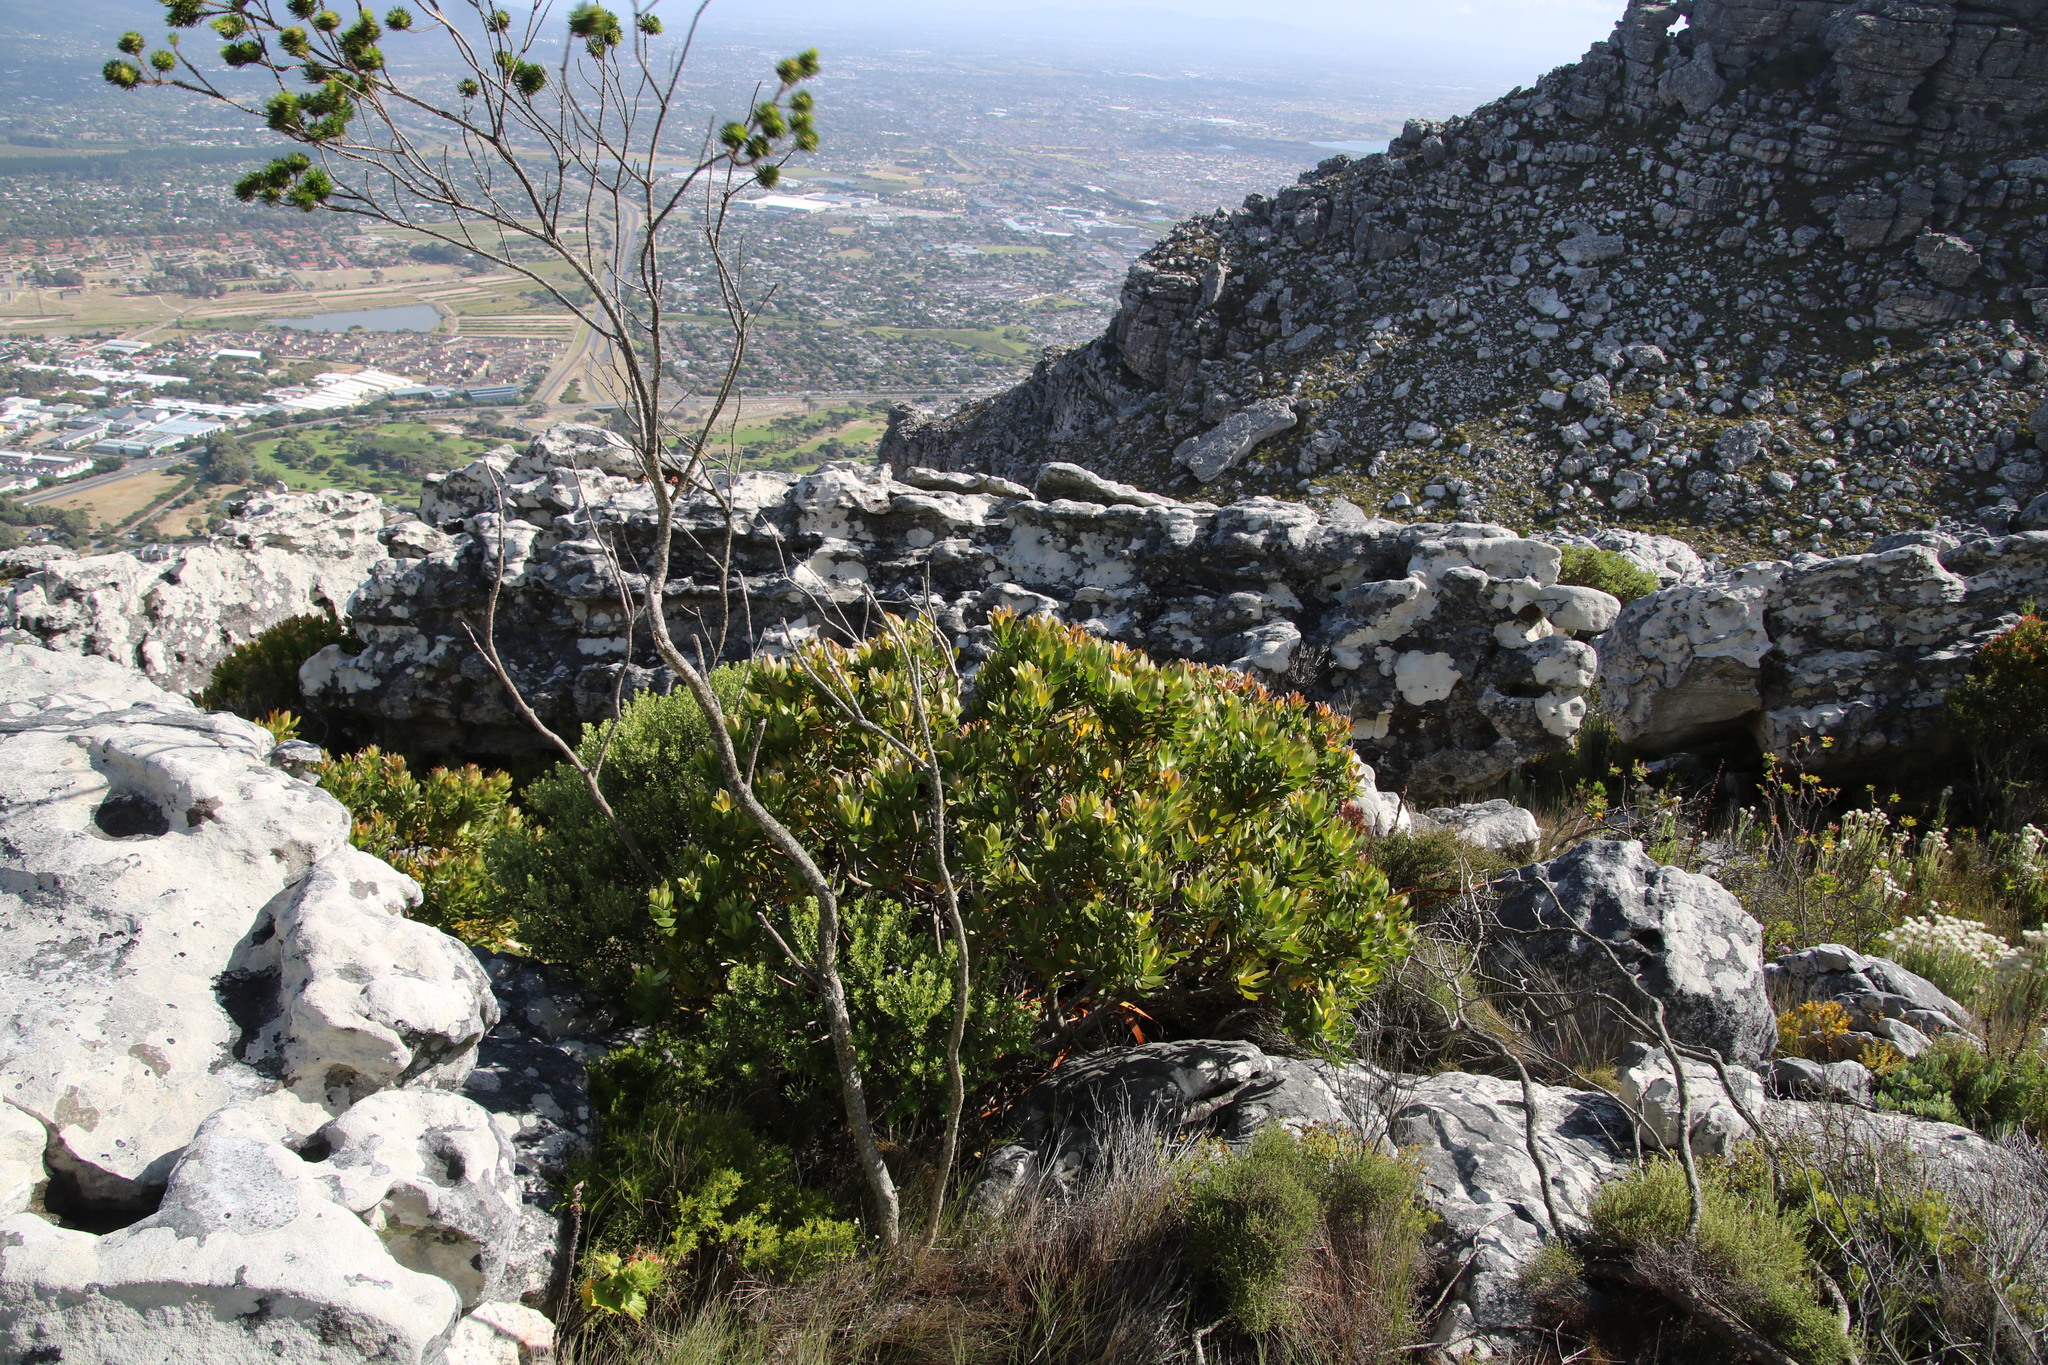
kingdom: Plantae
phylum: Tracheophyta
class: Magnoliopsida
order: Proteales
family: Proteaceae
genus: Leucadendron
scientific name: Leucadendron laureolum
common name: Golden sunshinebush
